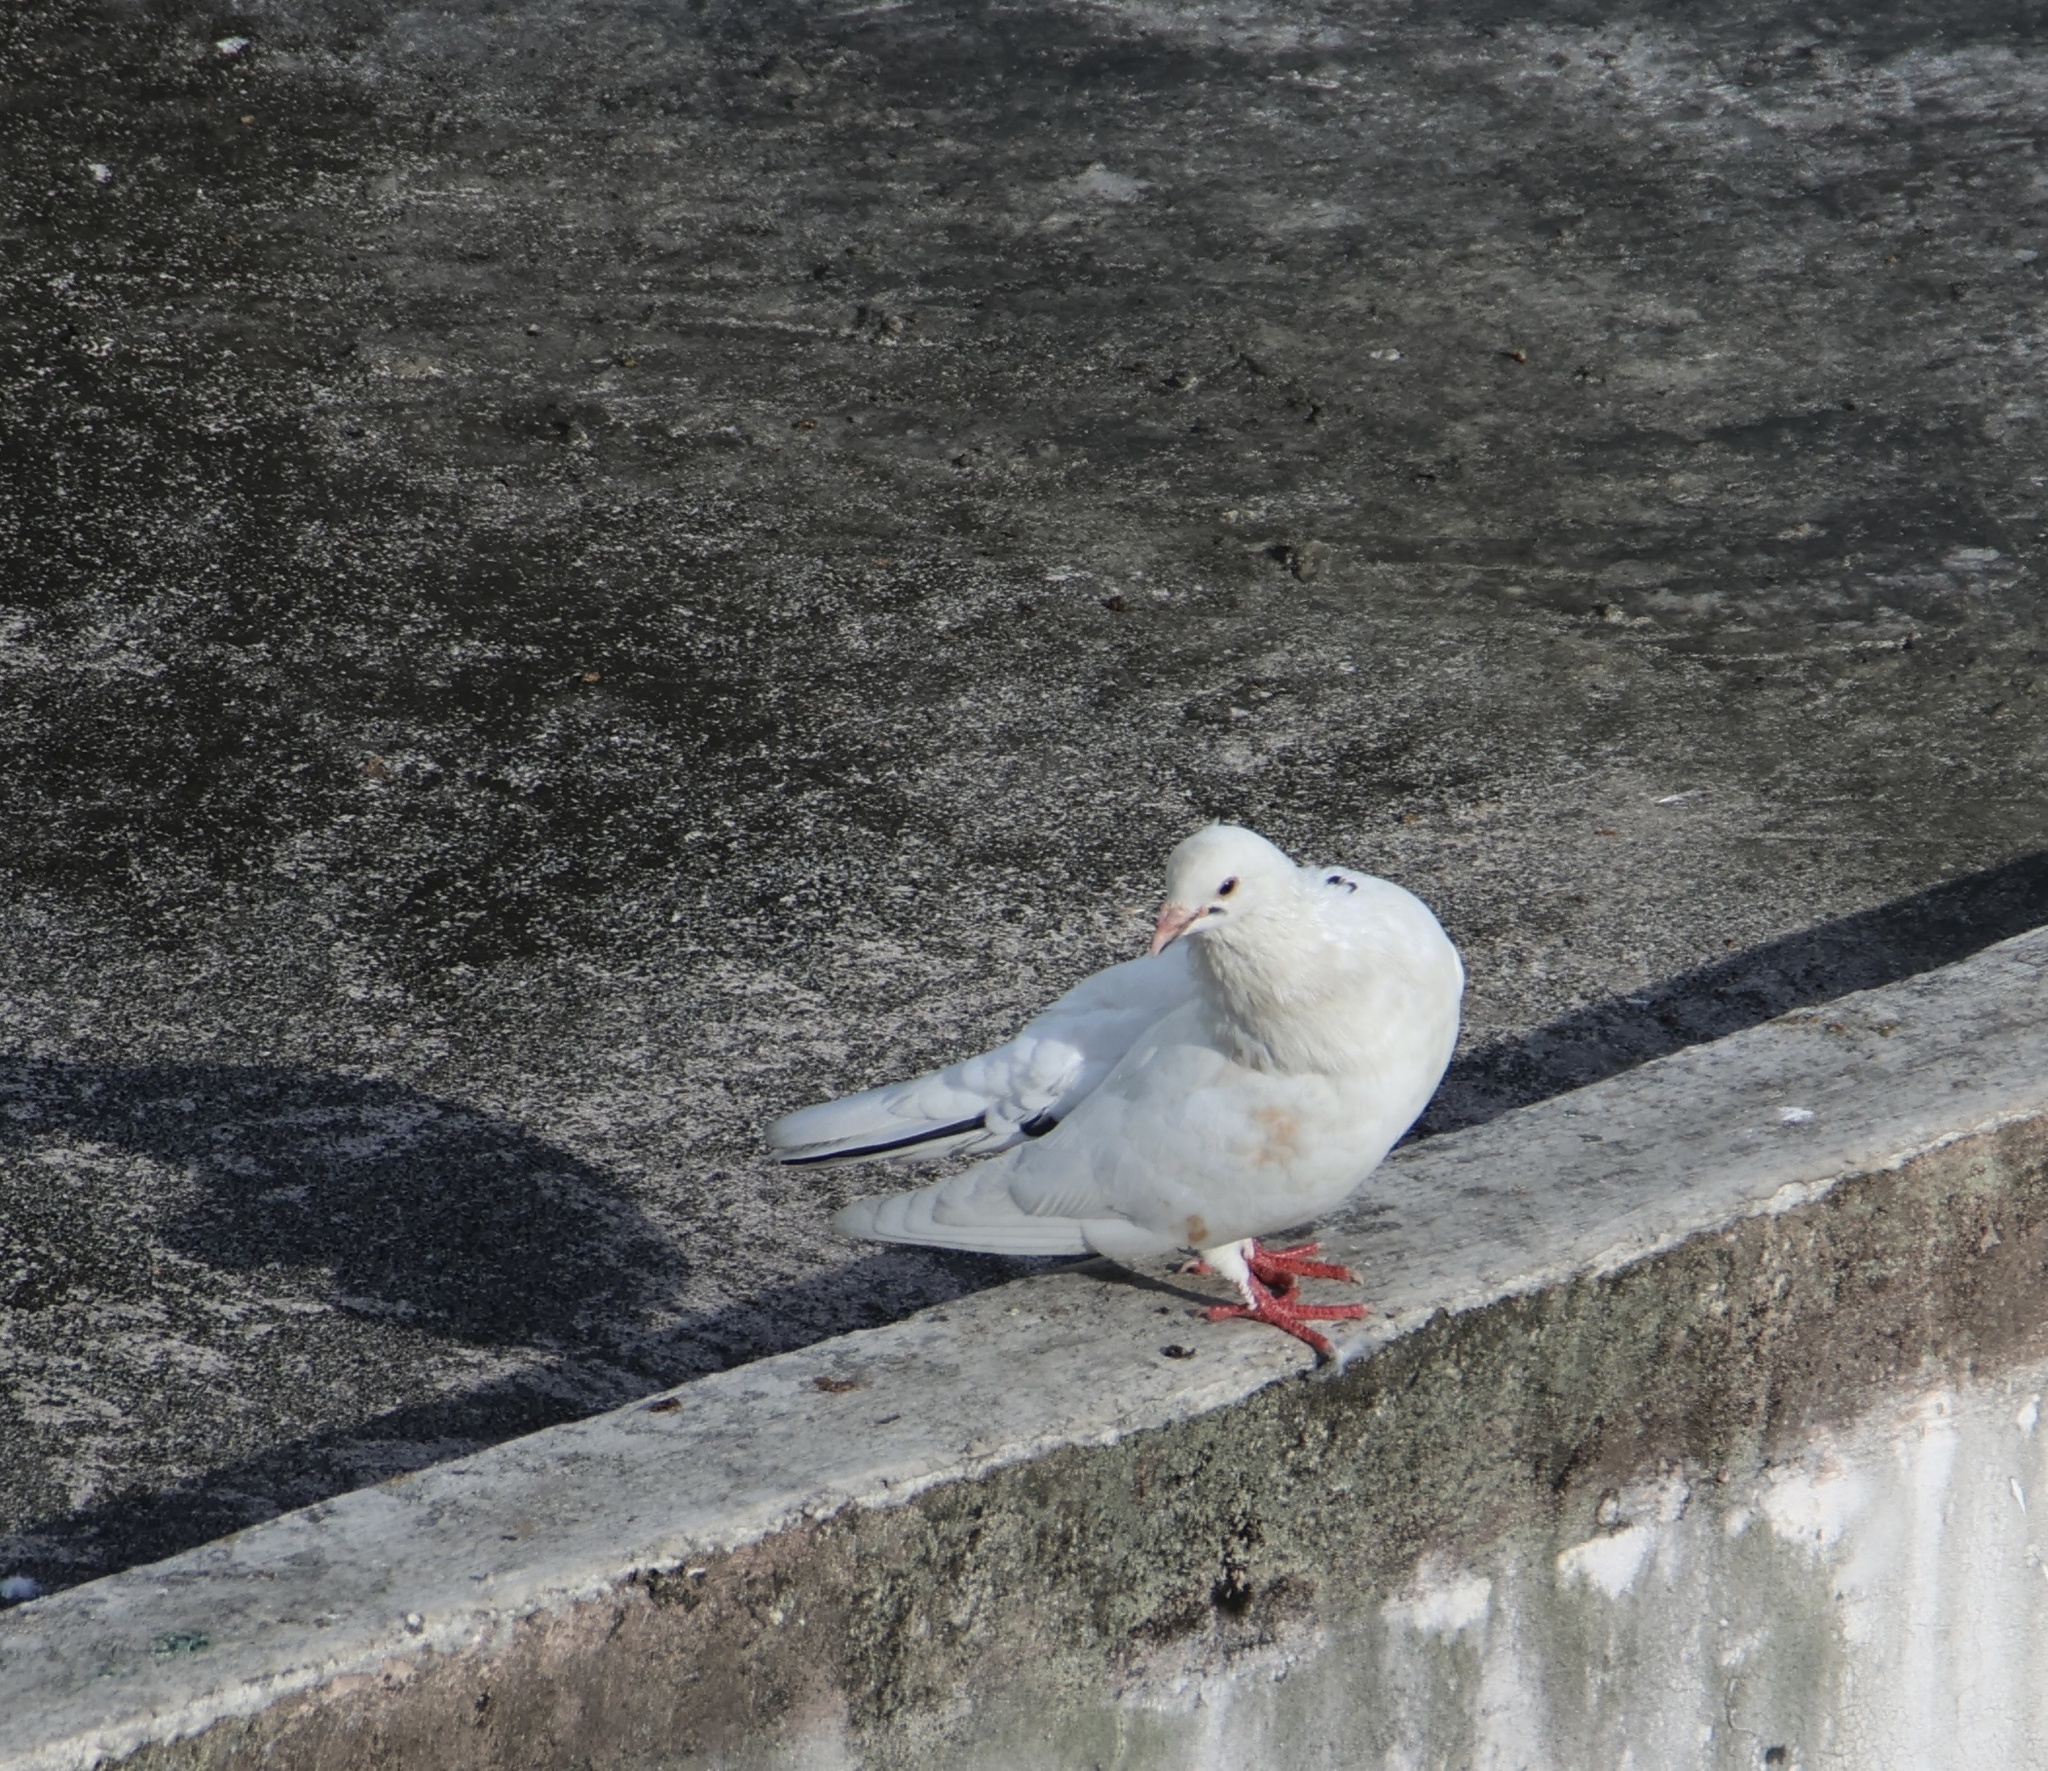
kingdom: Animalia
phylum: Chordata
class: Aves
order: Columbiformes
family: Columbidae
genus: Columba
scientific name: Columba livia
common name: Rock pigeon
